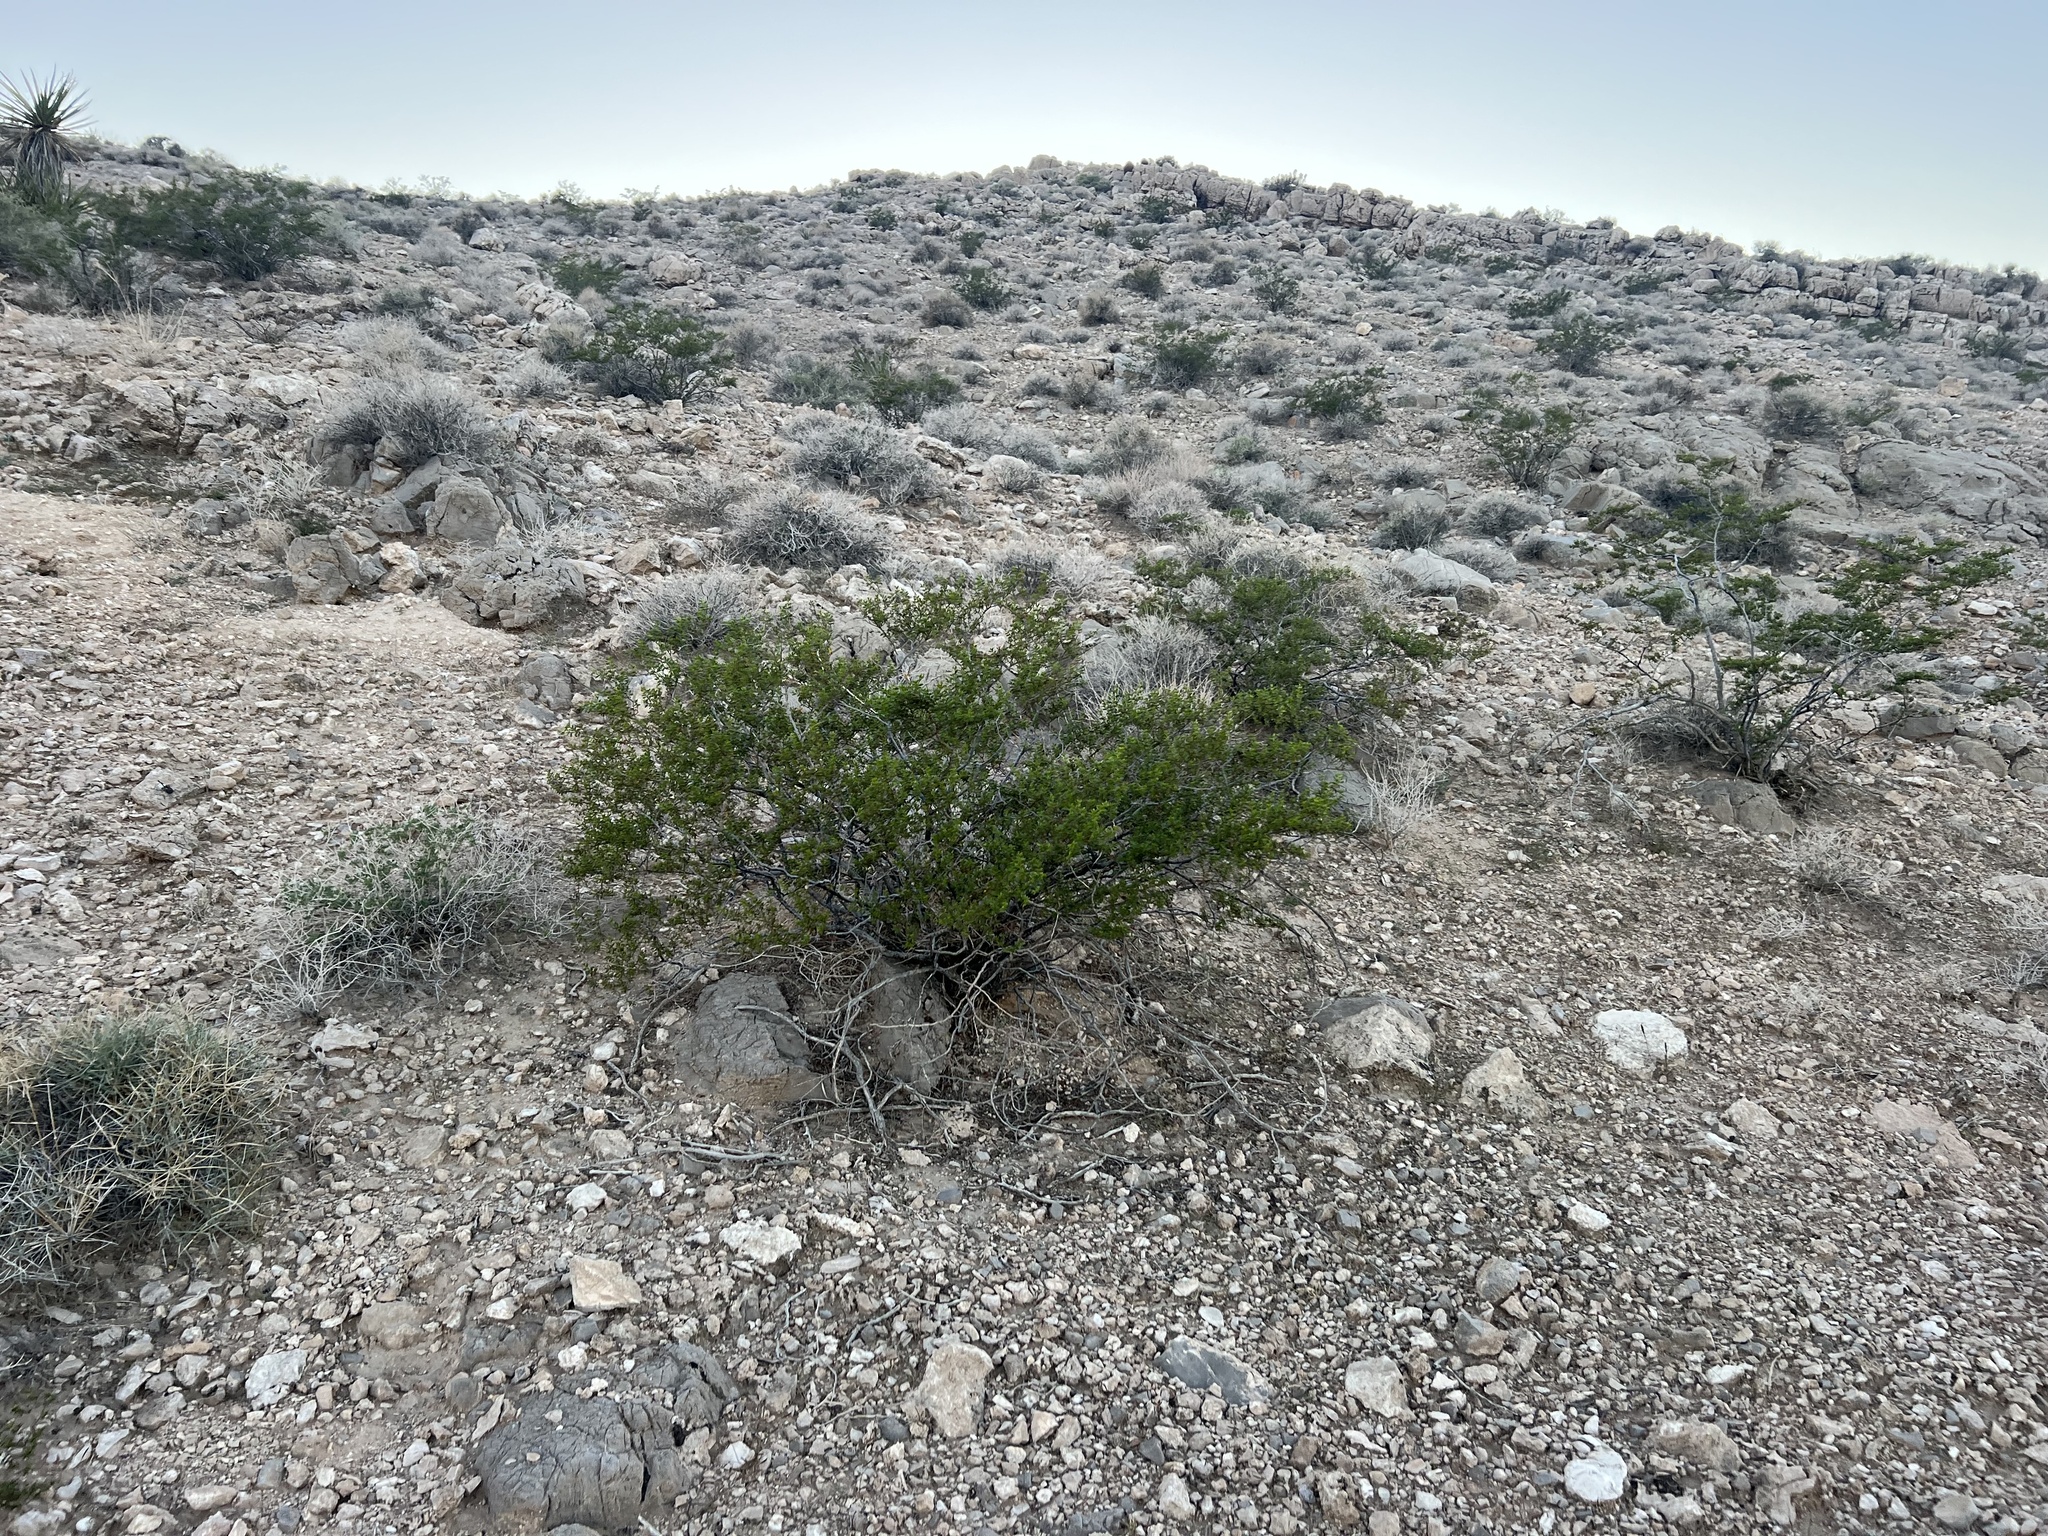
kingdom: Plantae
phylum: Tracheophyta
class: Magnoliopsida
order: Zygophyllales
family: Zygophyllaceae
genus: Larrea
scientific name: Larrea tridentata
